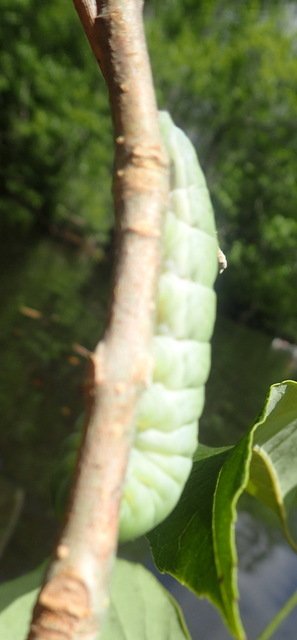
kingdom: Animalia
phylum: Arthropoda
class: Insecta
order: Lepidoptera
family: Papilionidae
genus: Papilio
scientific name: Papilio glaucus
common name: Tiger swallowtail
